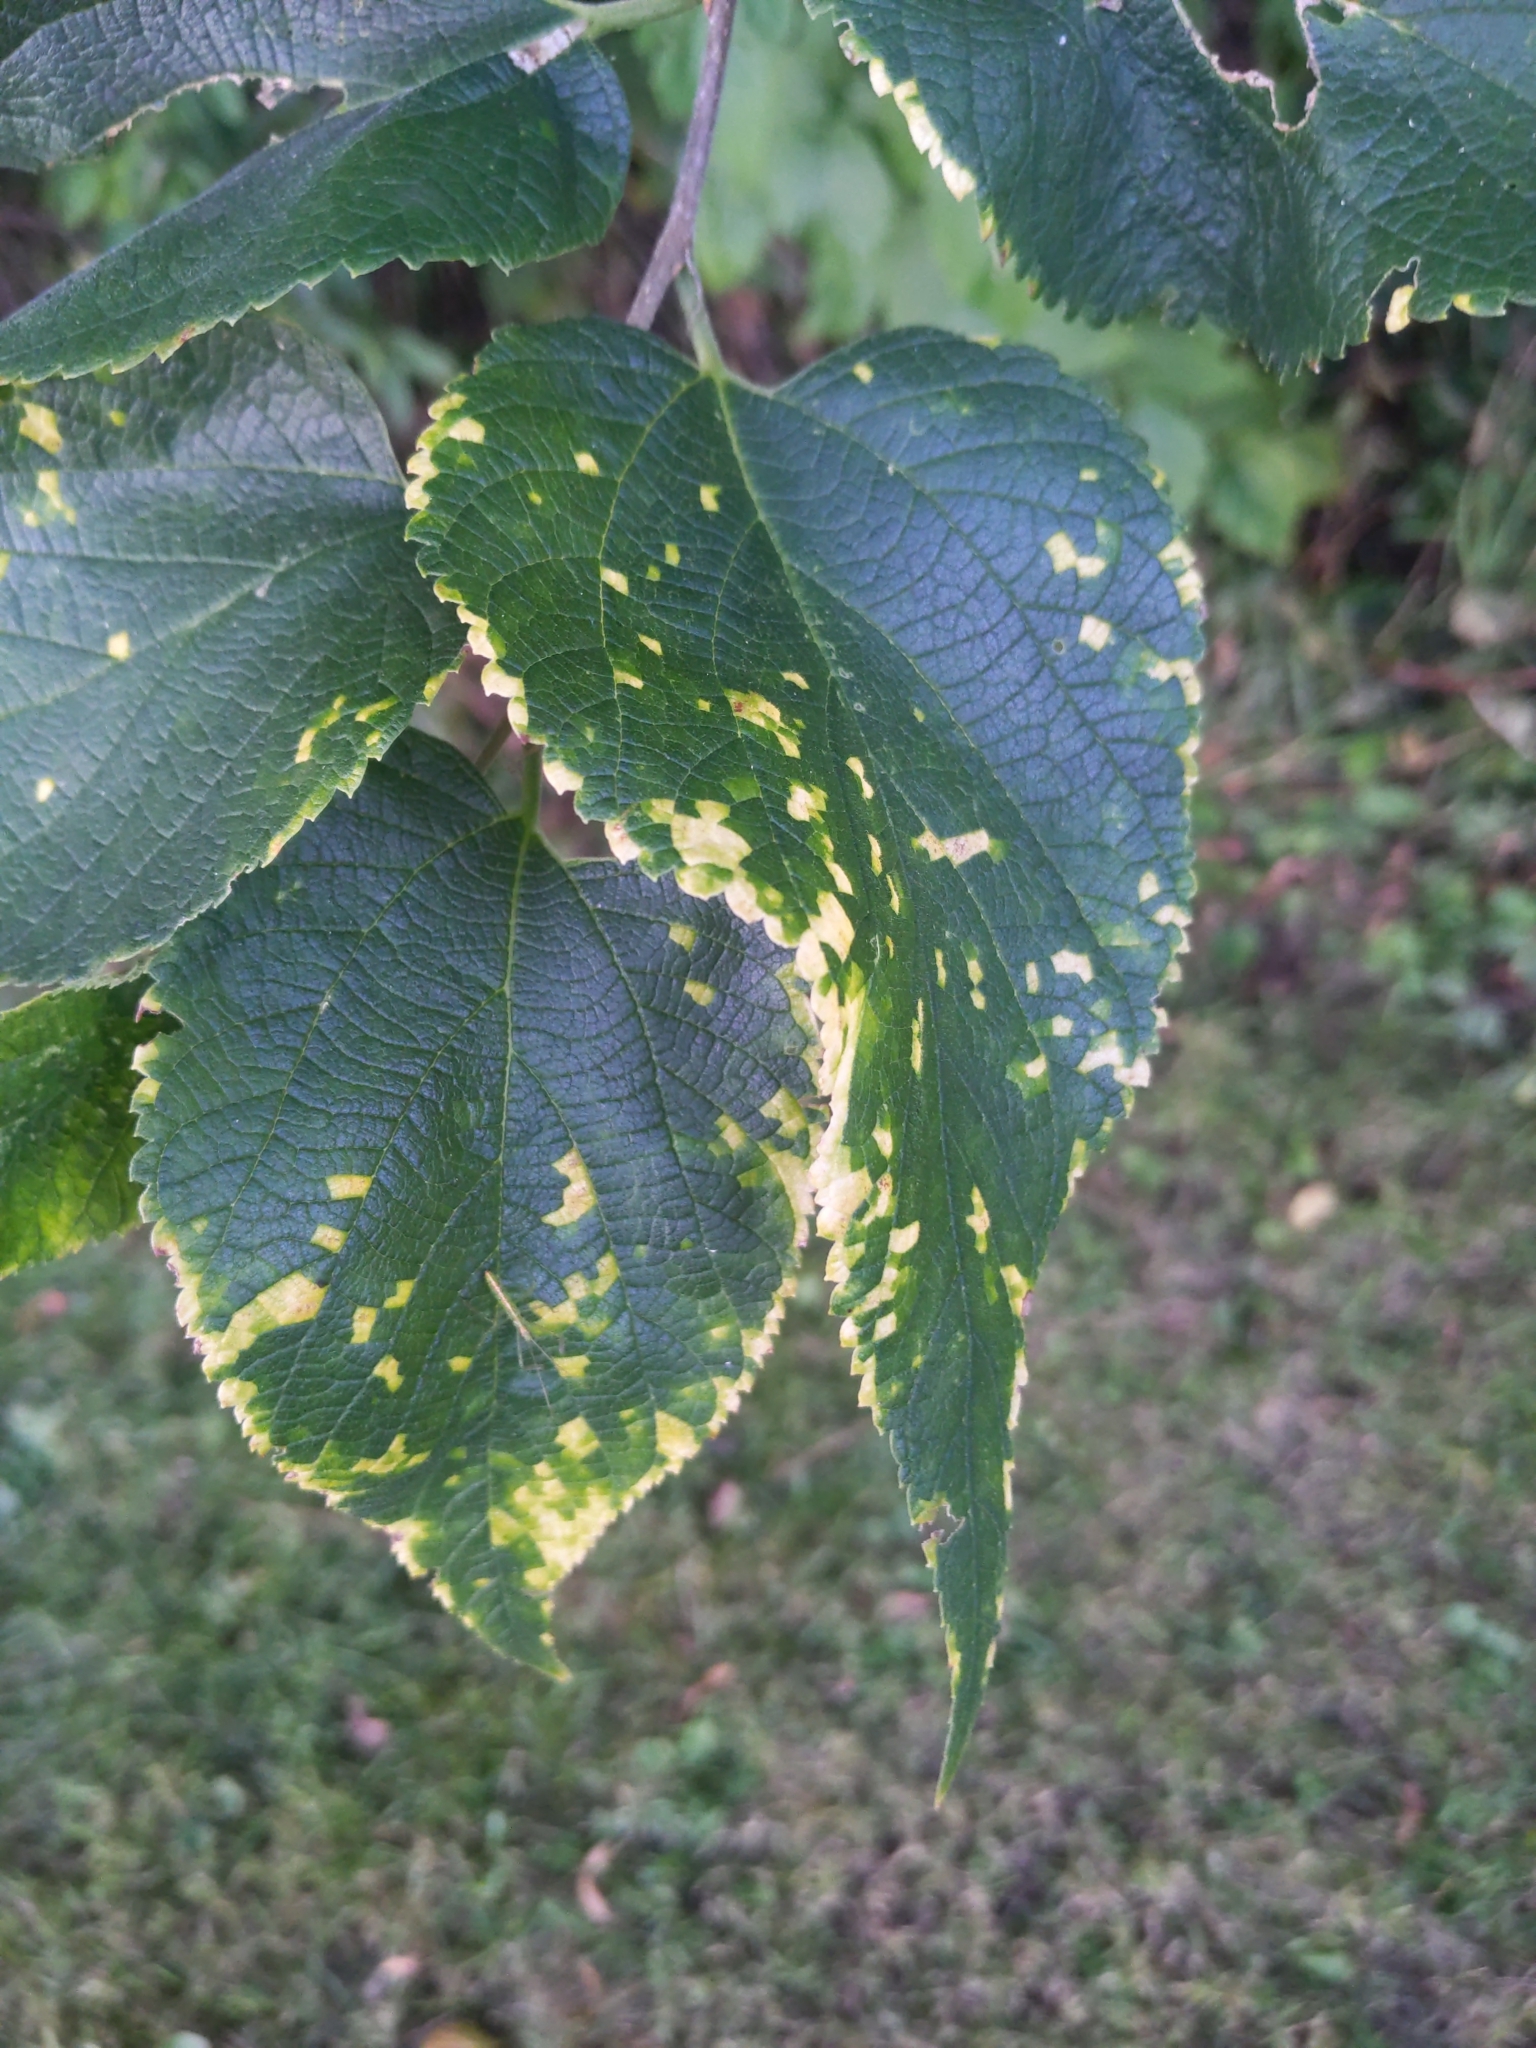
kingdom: Viruses
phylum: Kitrinoviricota
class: Alsuviricetes
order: Martellivirales
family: Closteroviridae
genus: Ampelovirus
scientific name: Ampelovirus
